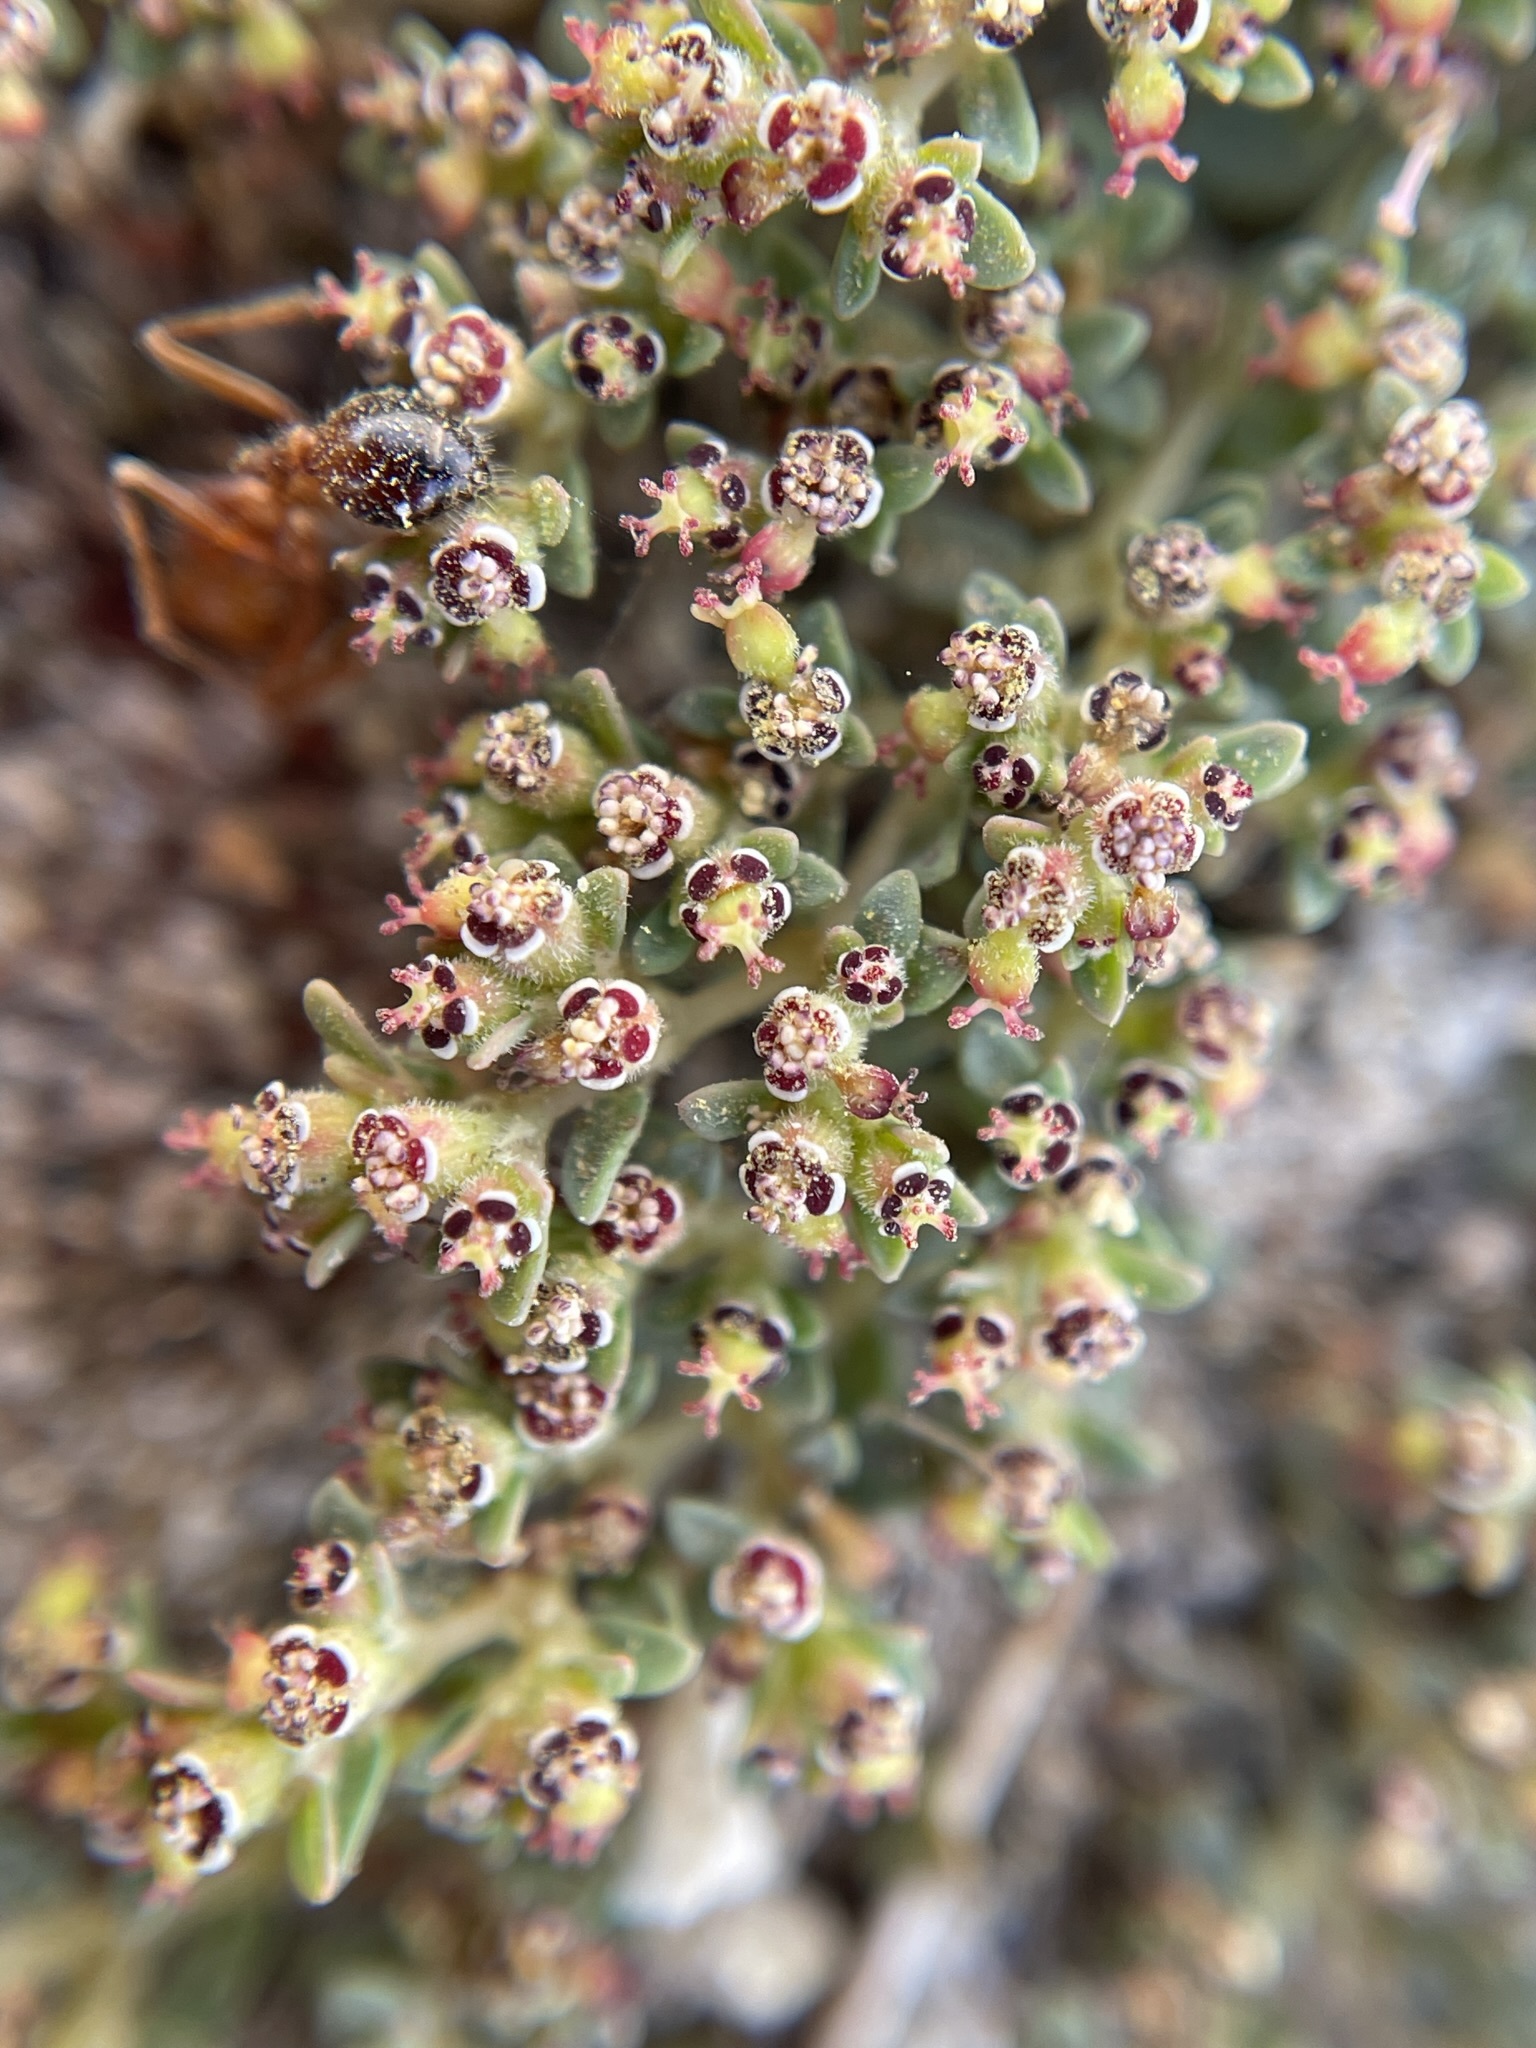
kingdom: Plantae
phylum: Tracheophyta
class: Magnoliopsida
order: Malpighiales
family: Euphorbiaceae
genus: Euphorbia
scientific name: Euphorbia polycarpa
